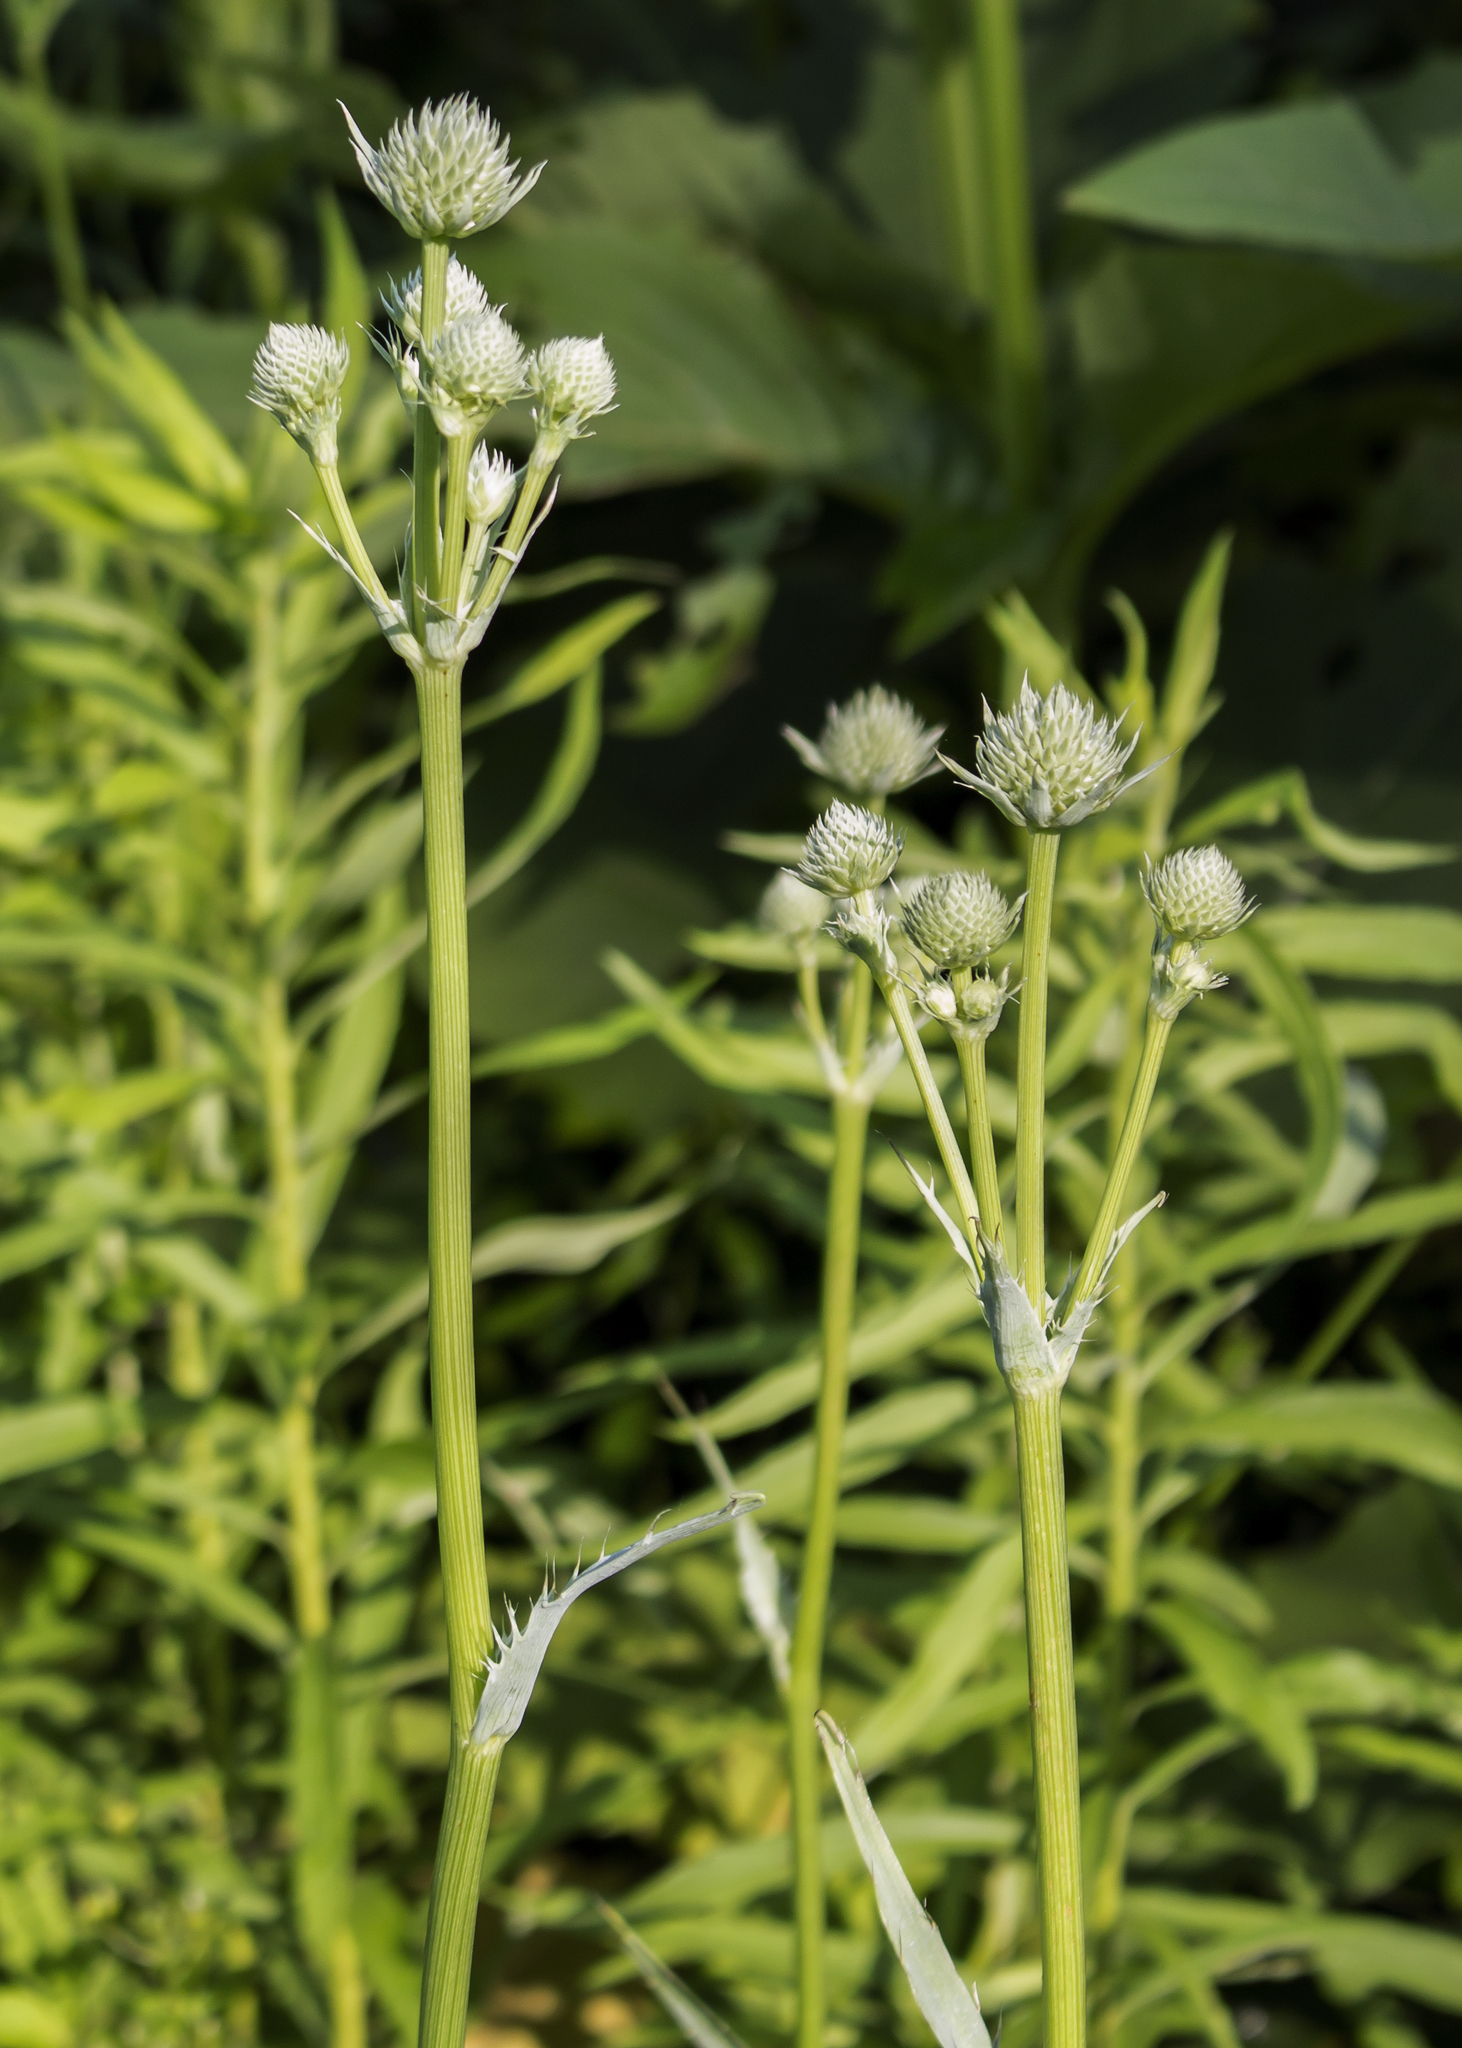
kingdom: Plantae
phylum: Tracheophyta
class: Magnoliopsida
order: Apiales
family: Apiaceae
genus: Eryngium
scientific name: Eryngium yuccifolium
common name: Button eryngo
